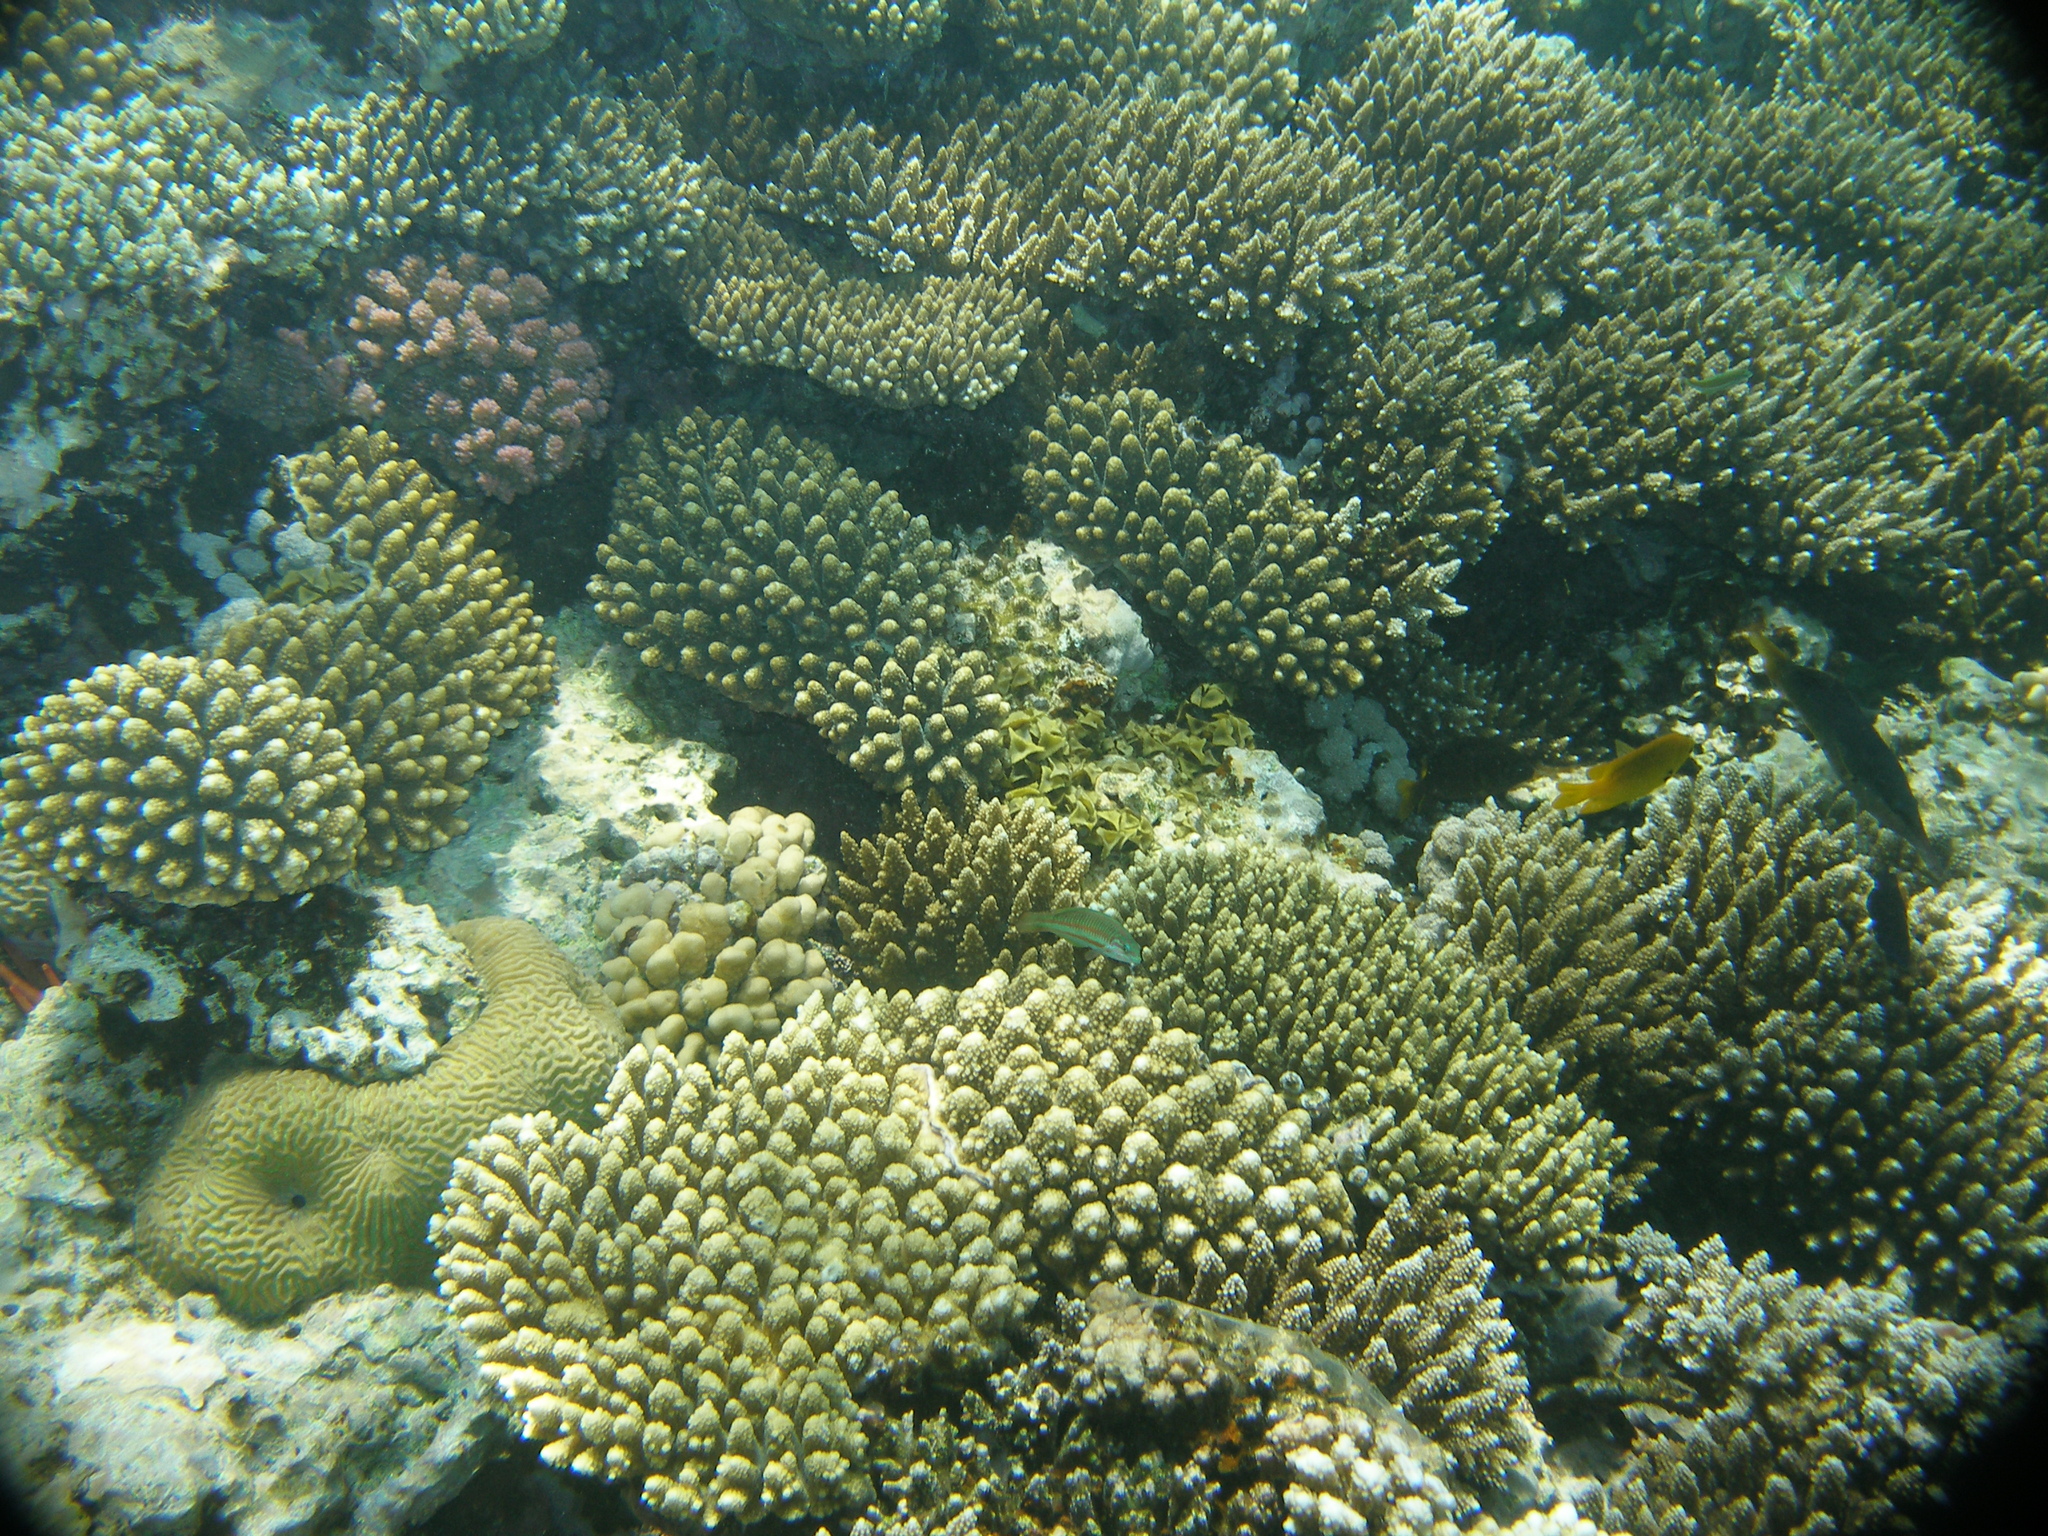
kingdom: Animalia
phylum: Cnidaria
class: Anthozoa
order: Scleractinia
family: Acroporidae
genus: Acropora
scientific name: Acropora gemmifera
